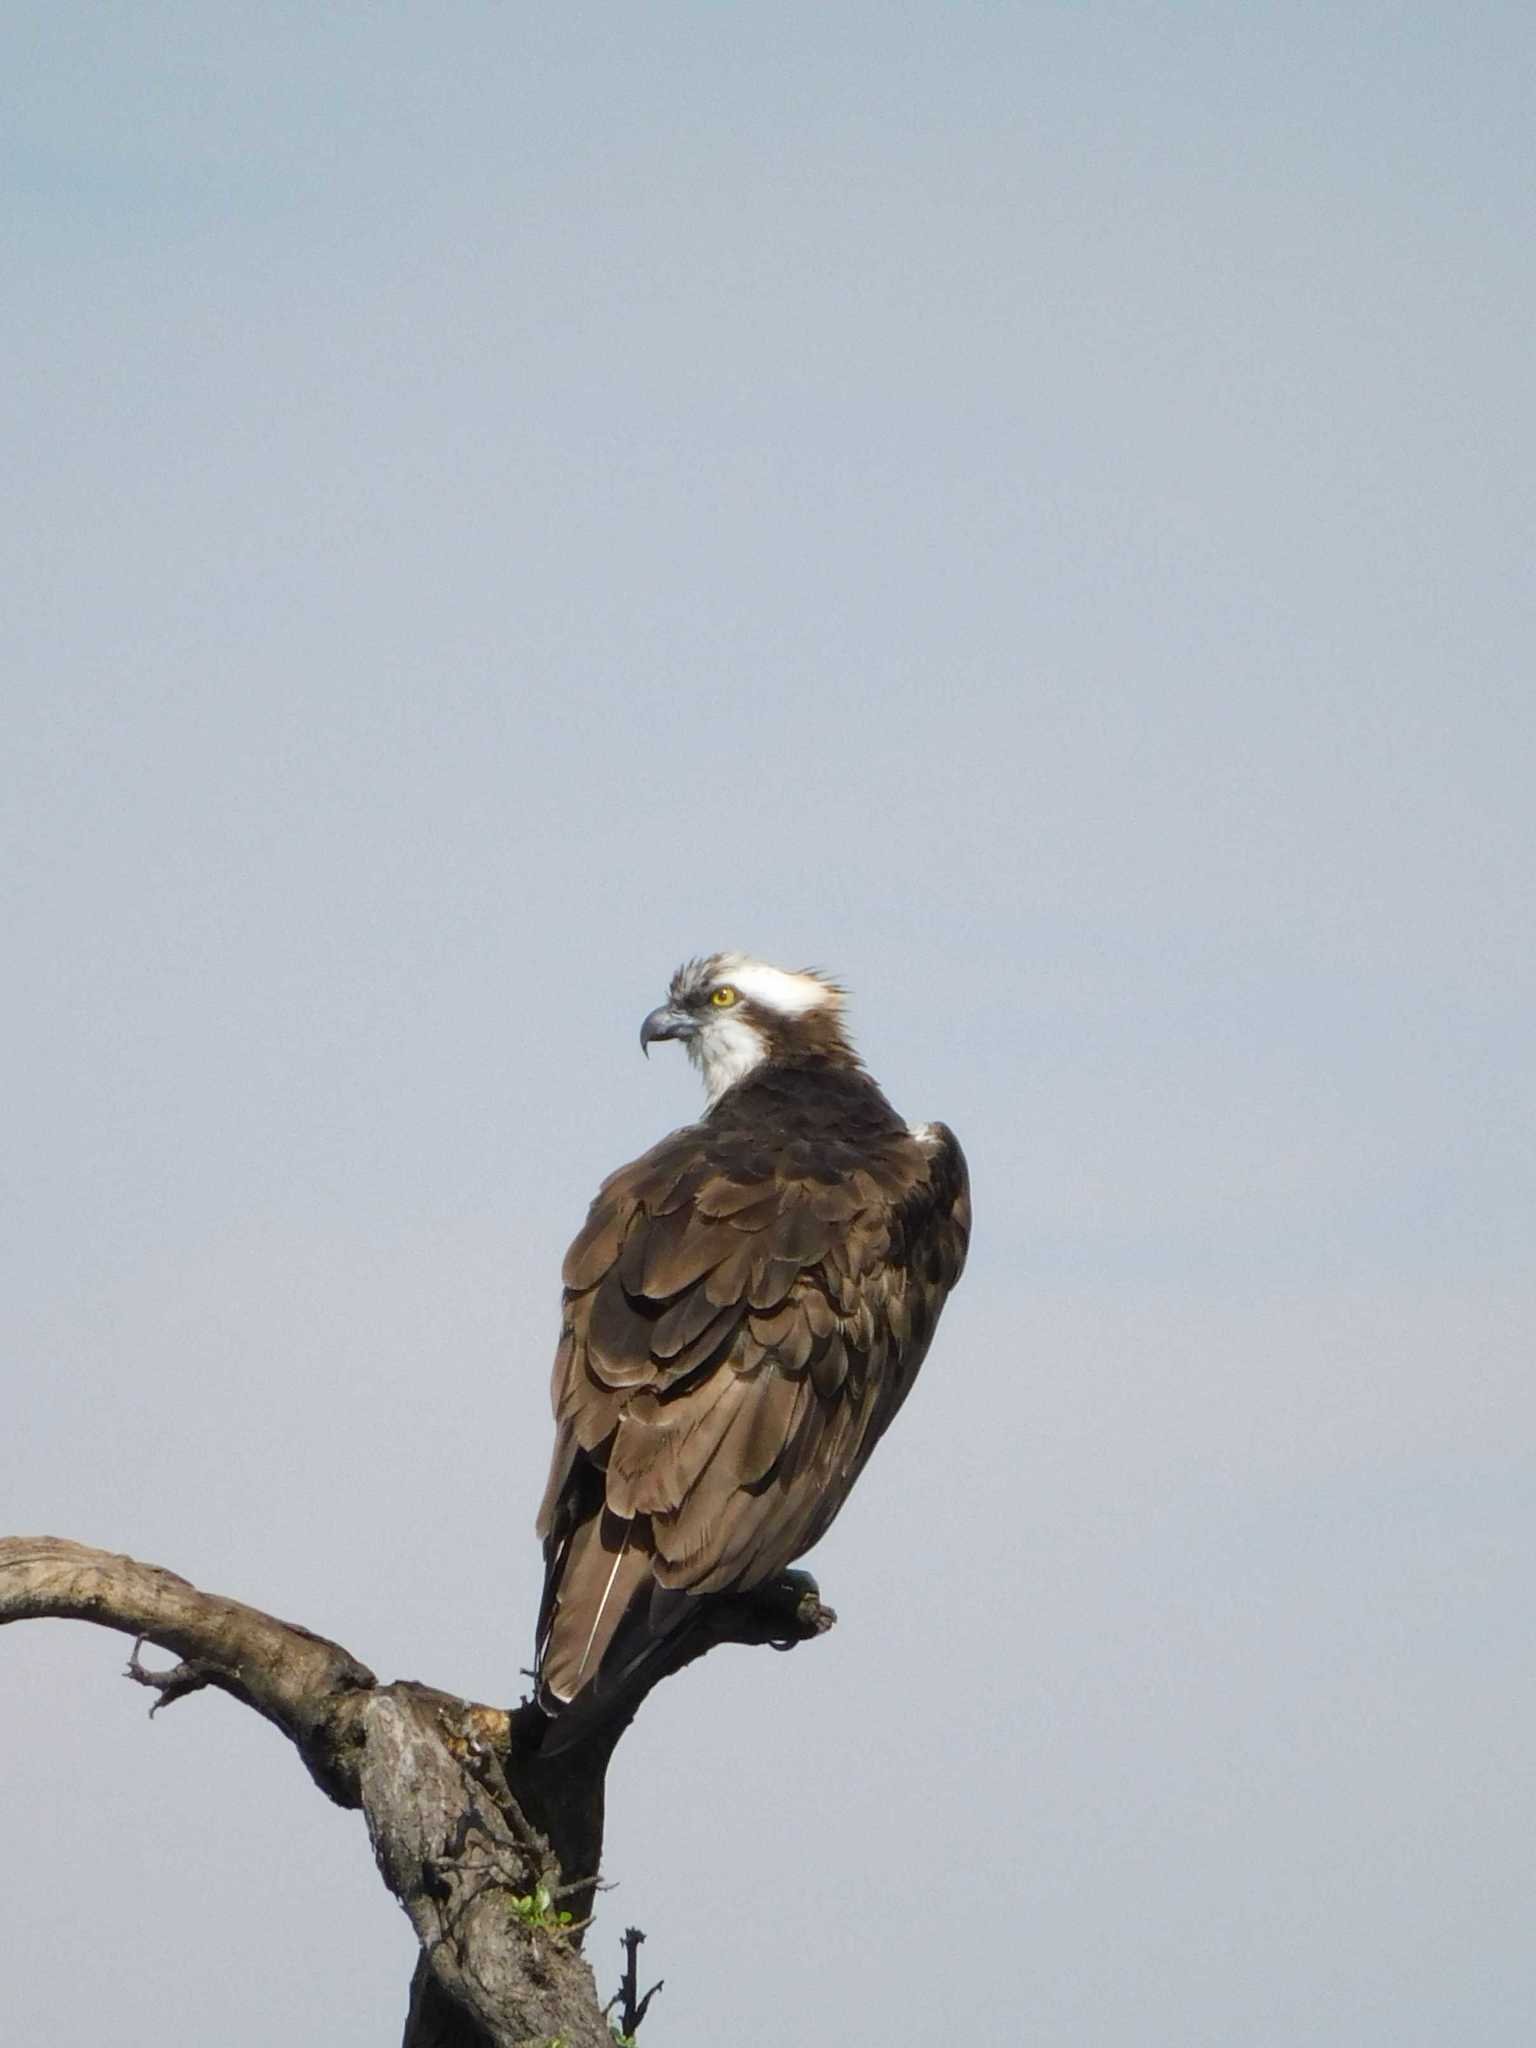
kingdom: Animalia
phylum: Chordata
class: Aves
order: Accipitriformes
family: Pandionidae
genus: Pandion
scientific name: Pandion haliaetus
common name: Osprey
